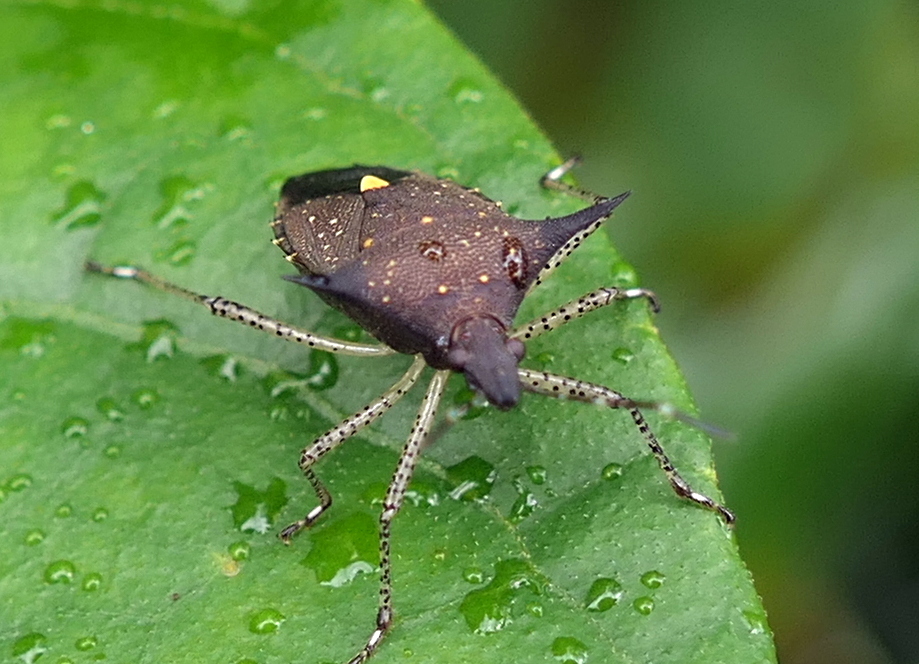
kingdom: Animalia
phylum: Arthropoda
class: Insecta
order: Hemiptera
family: Pentatomidae
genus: Proxys
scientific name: Proxys albopunctulatus
